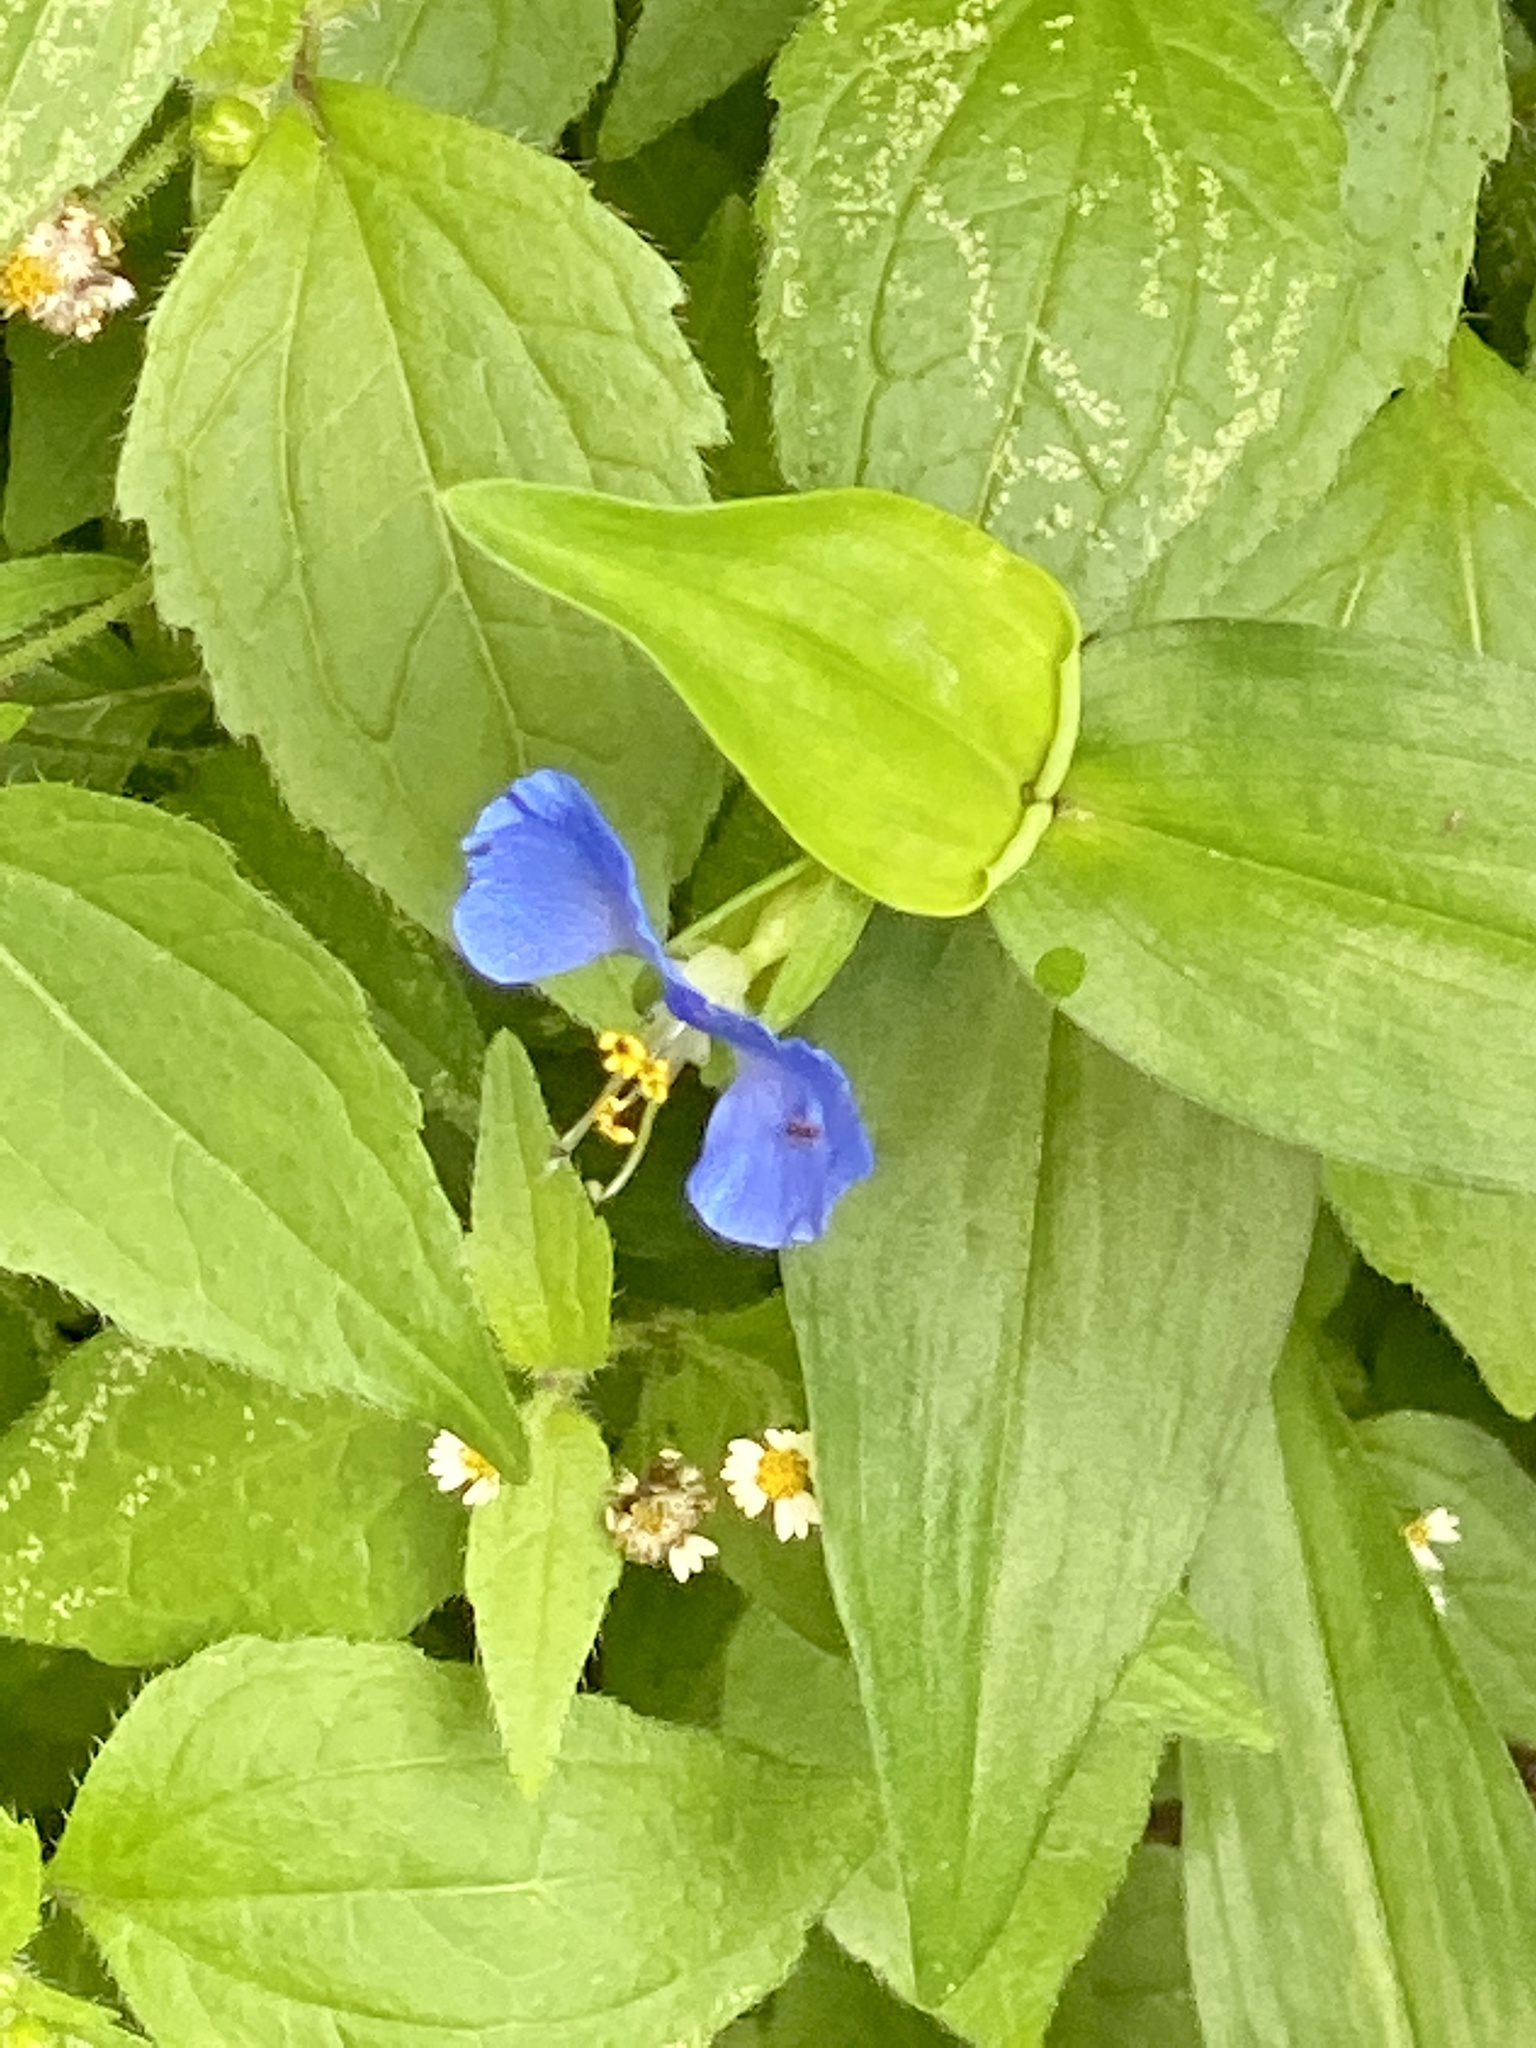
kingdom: Plantae
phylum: Tracheophyta
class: Liliopsida
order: Commelinales
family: Commelinaceae
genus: Commelina
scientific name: Commelina communis
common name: Asiatic dayflower
